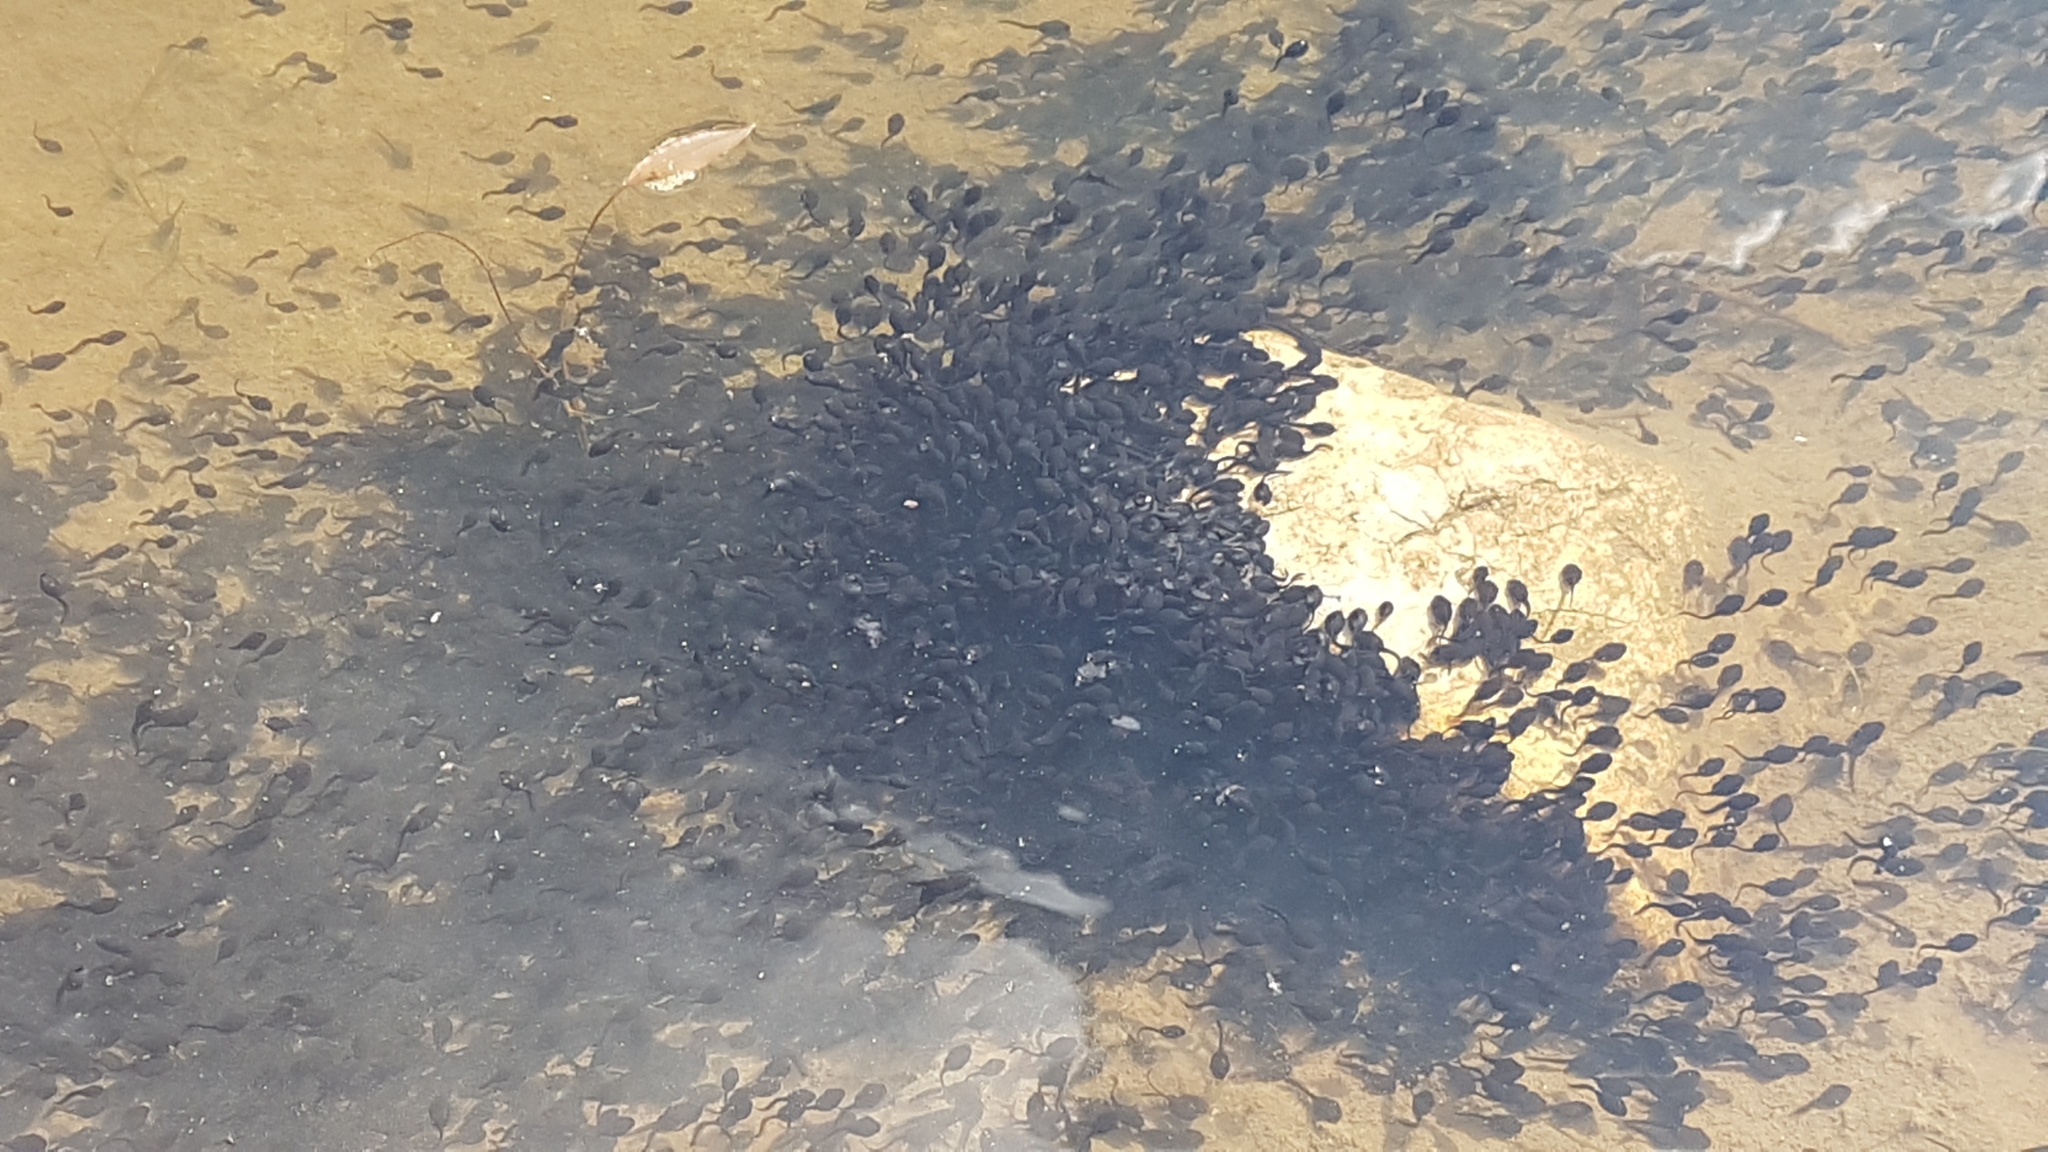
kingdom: Animalia
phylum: Chordata
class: Amphibia
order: Anura
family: Bufonidae
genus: Bufo
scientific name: Bufo bufo
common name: Common toad
